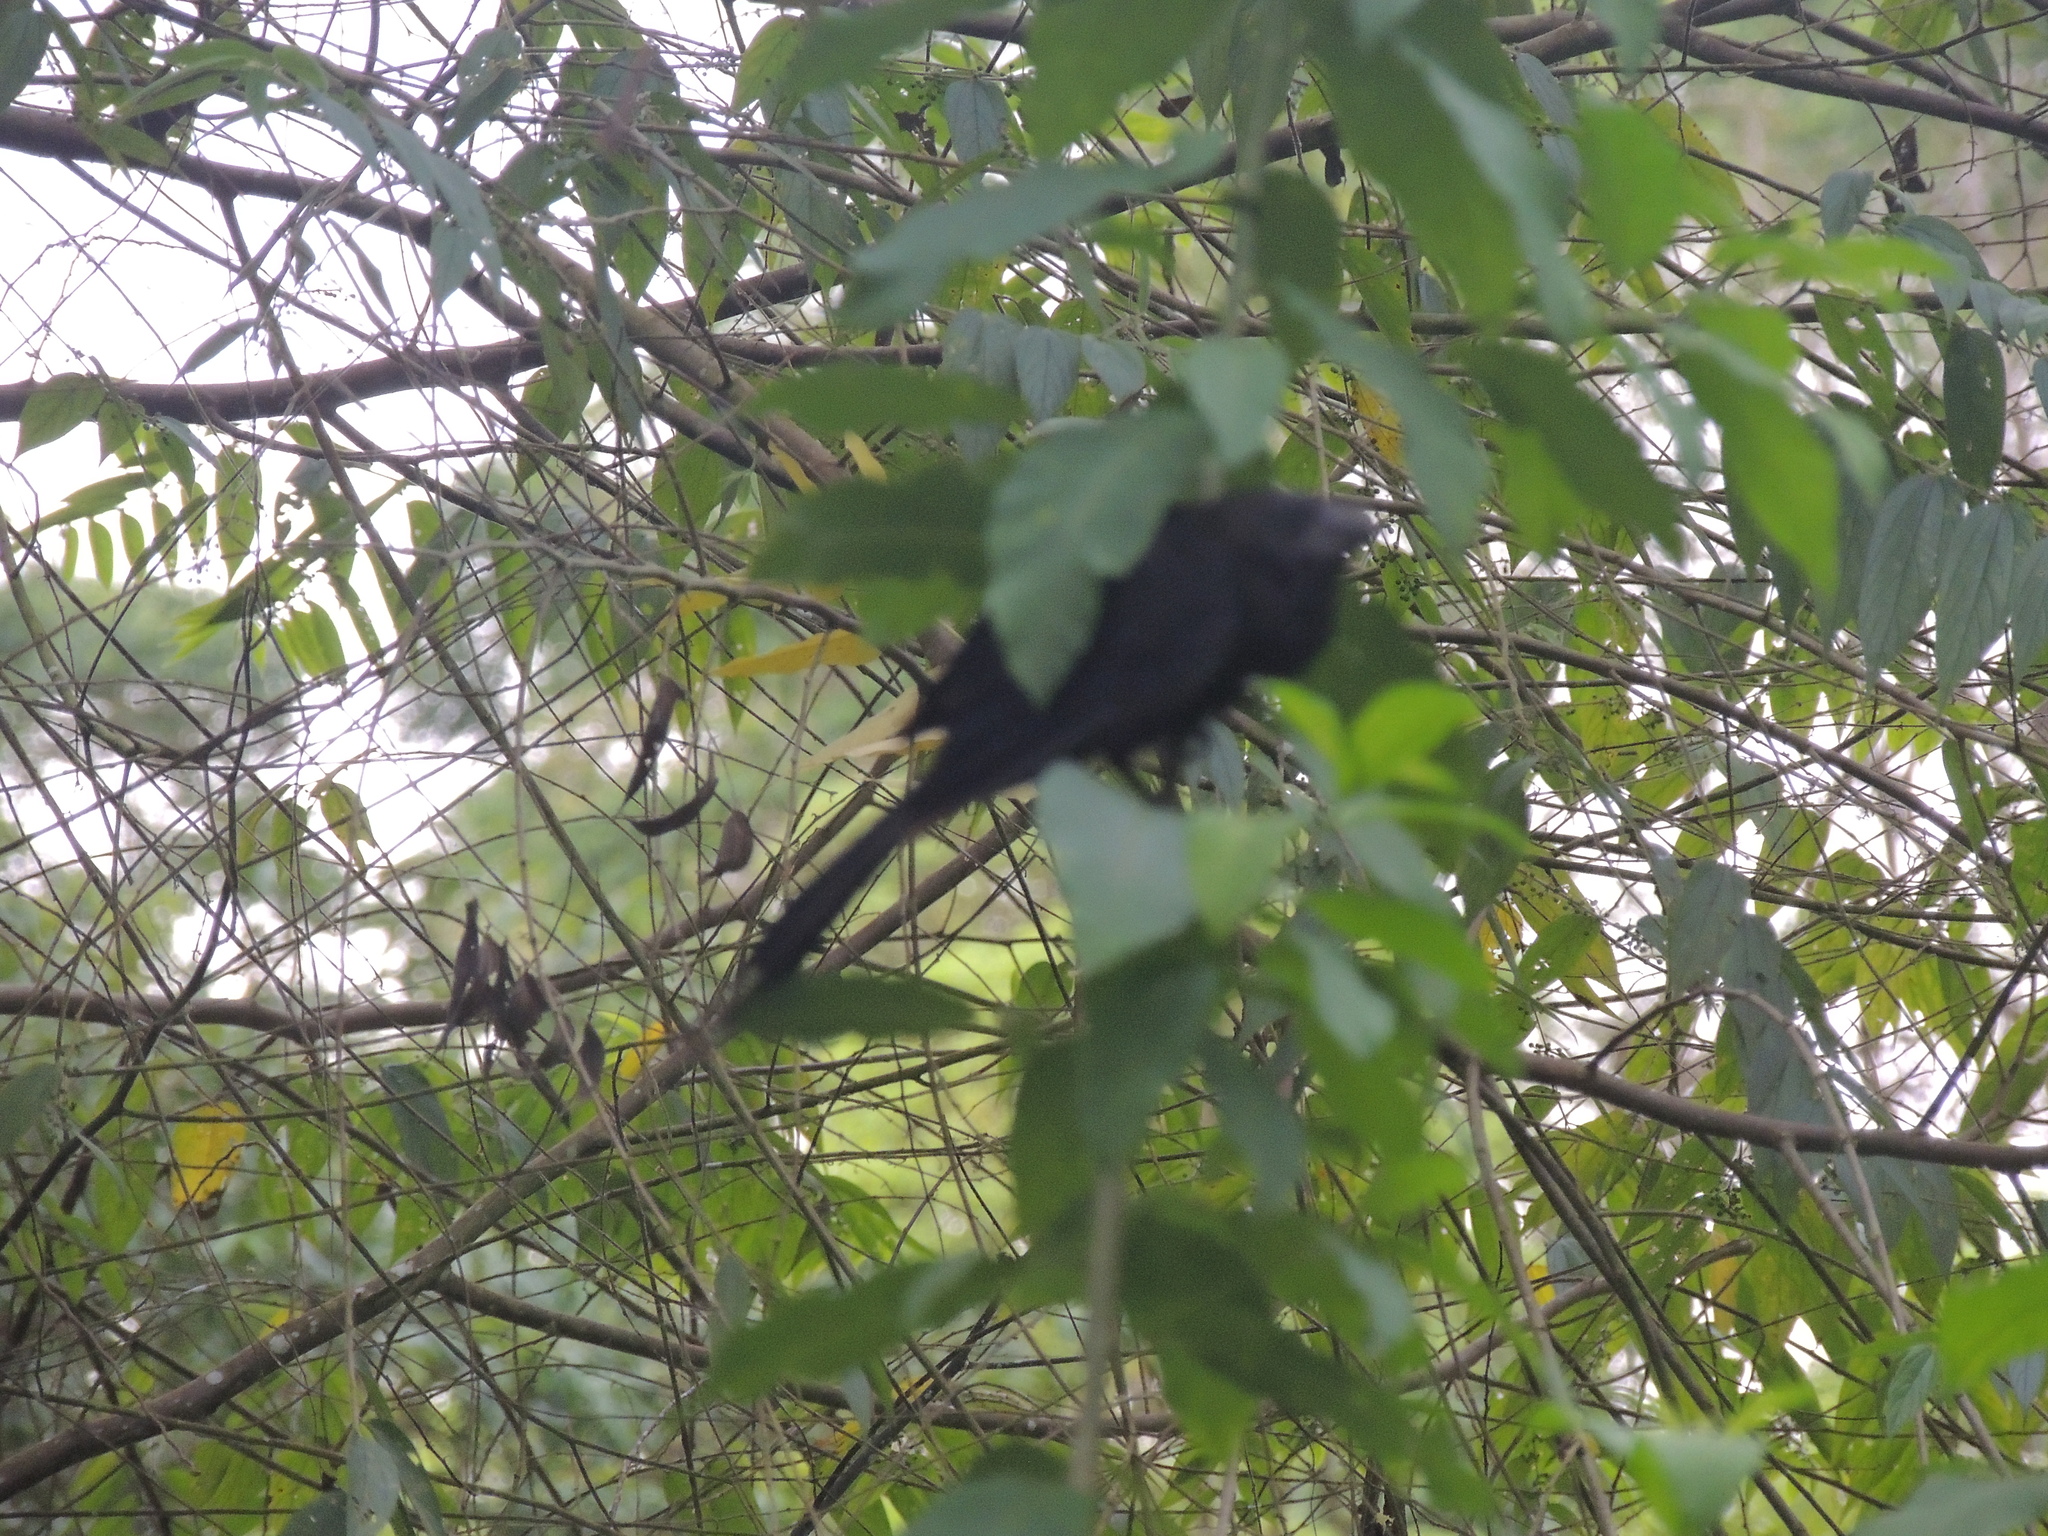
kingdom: Animalia
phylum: Chordata
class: Aves
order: Cuculiformes
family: Cuculidae
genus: Crotophaga
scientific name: Crotophaga ani
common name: Smooth-billed ani
